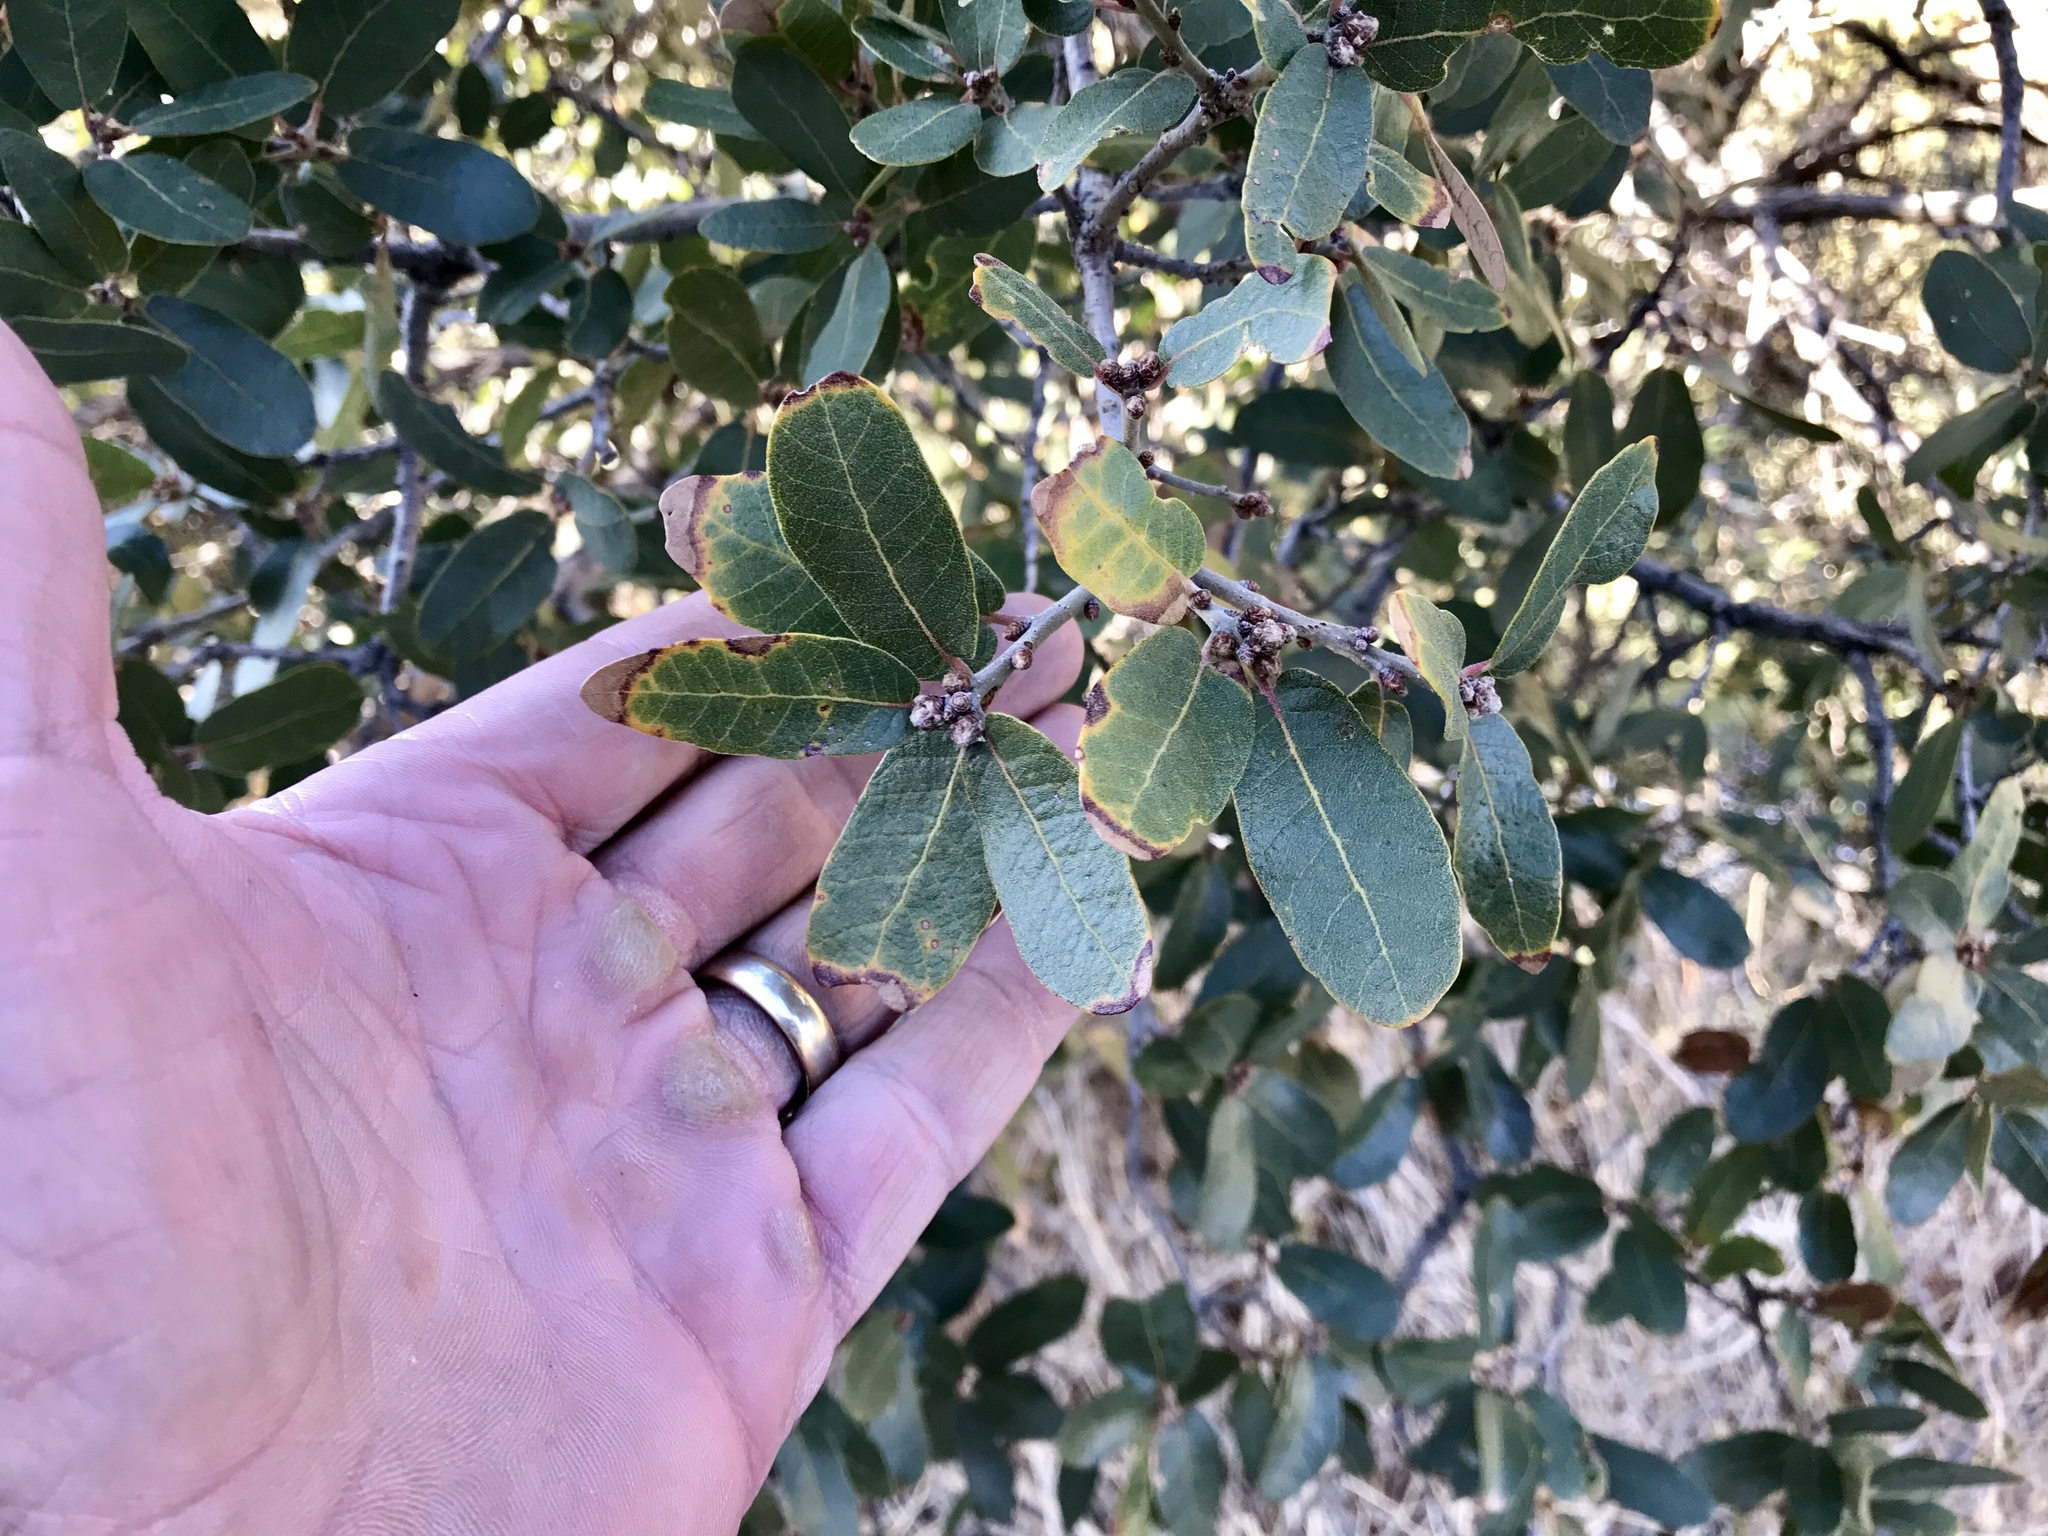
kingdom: Plantae
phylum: Tracheophyta
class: Magnoliopsida
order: Fagales
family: Fagaceae
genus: Quercus
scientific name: Quercus oblongifolia
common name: Mexican blue oak
